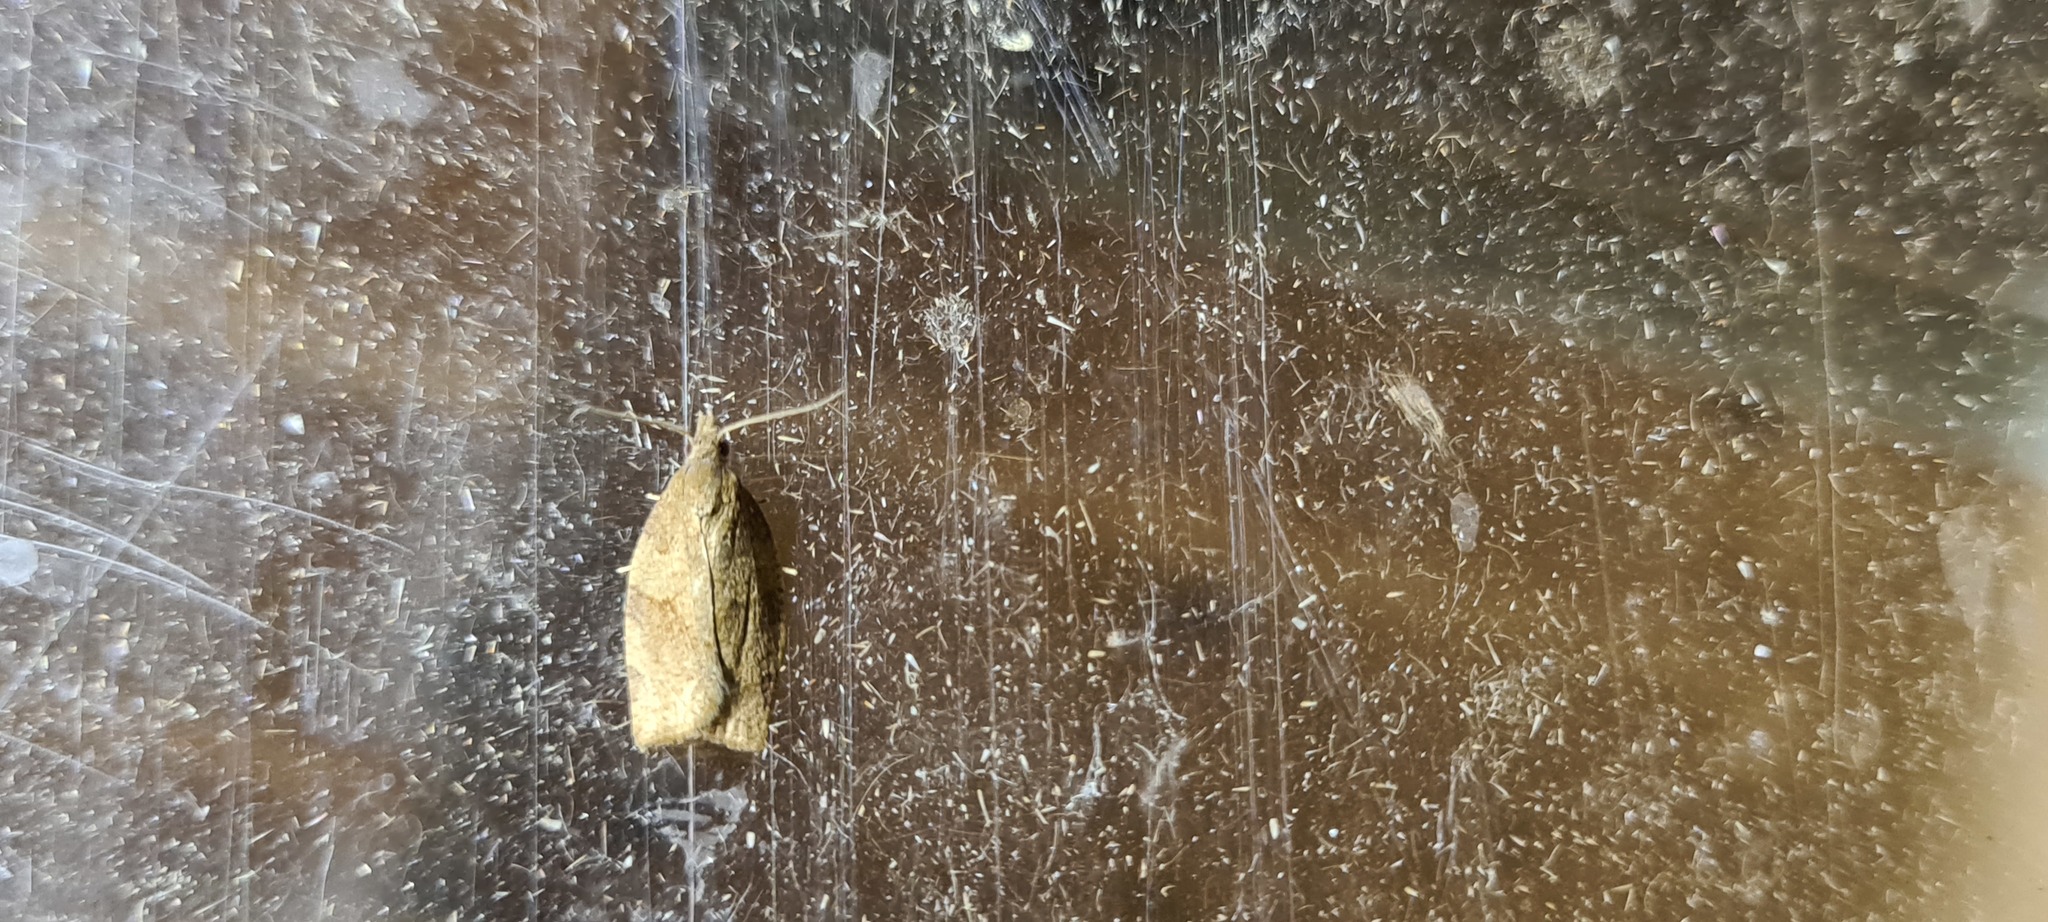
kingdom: Animalia
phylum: Arthropoda
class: Insecta
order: Lepidoptera
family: Tortricidae
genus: Pandemis
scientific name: Pandemis heparana
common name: Dark fruit-tree tortrix
